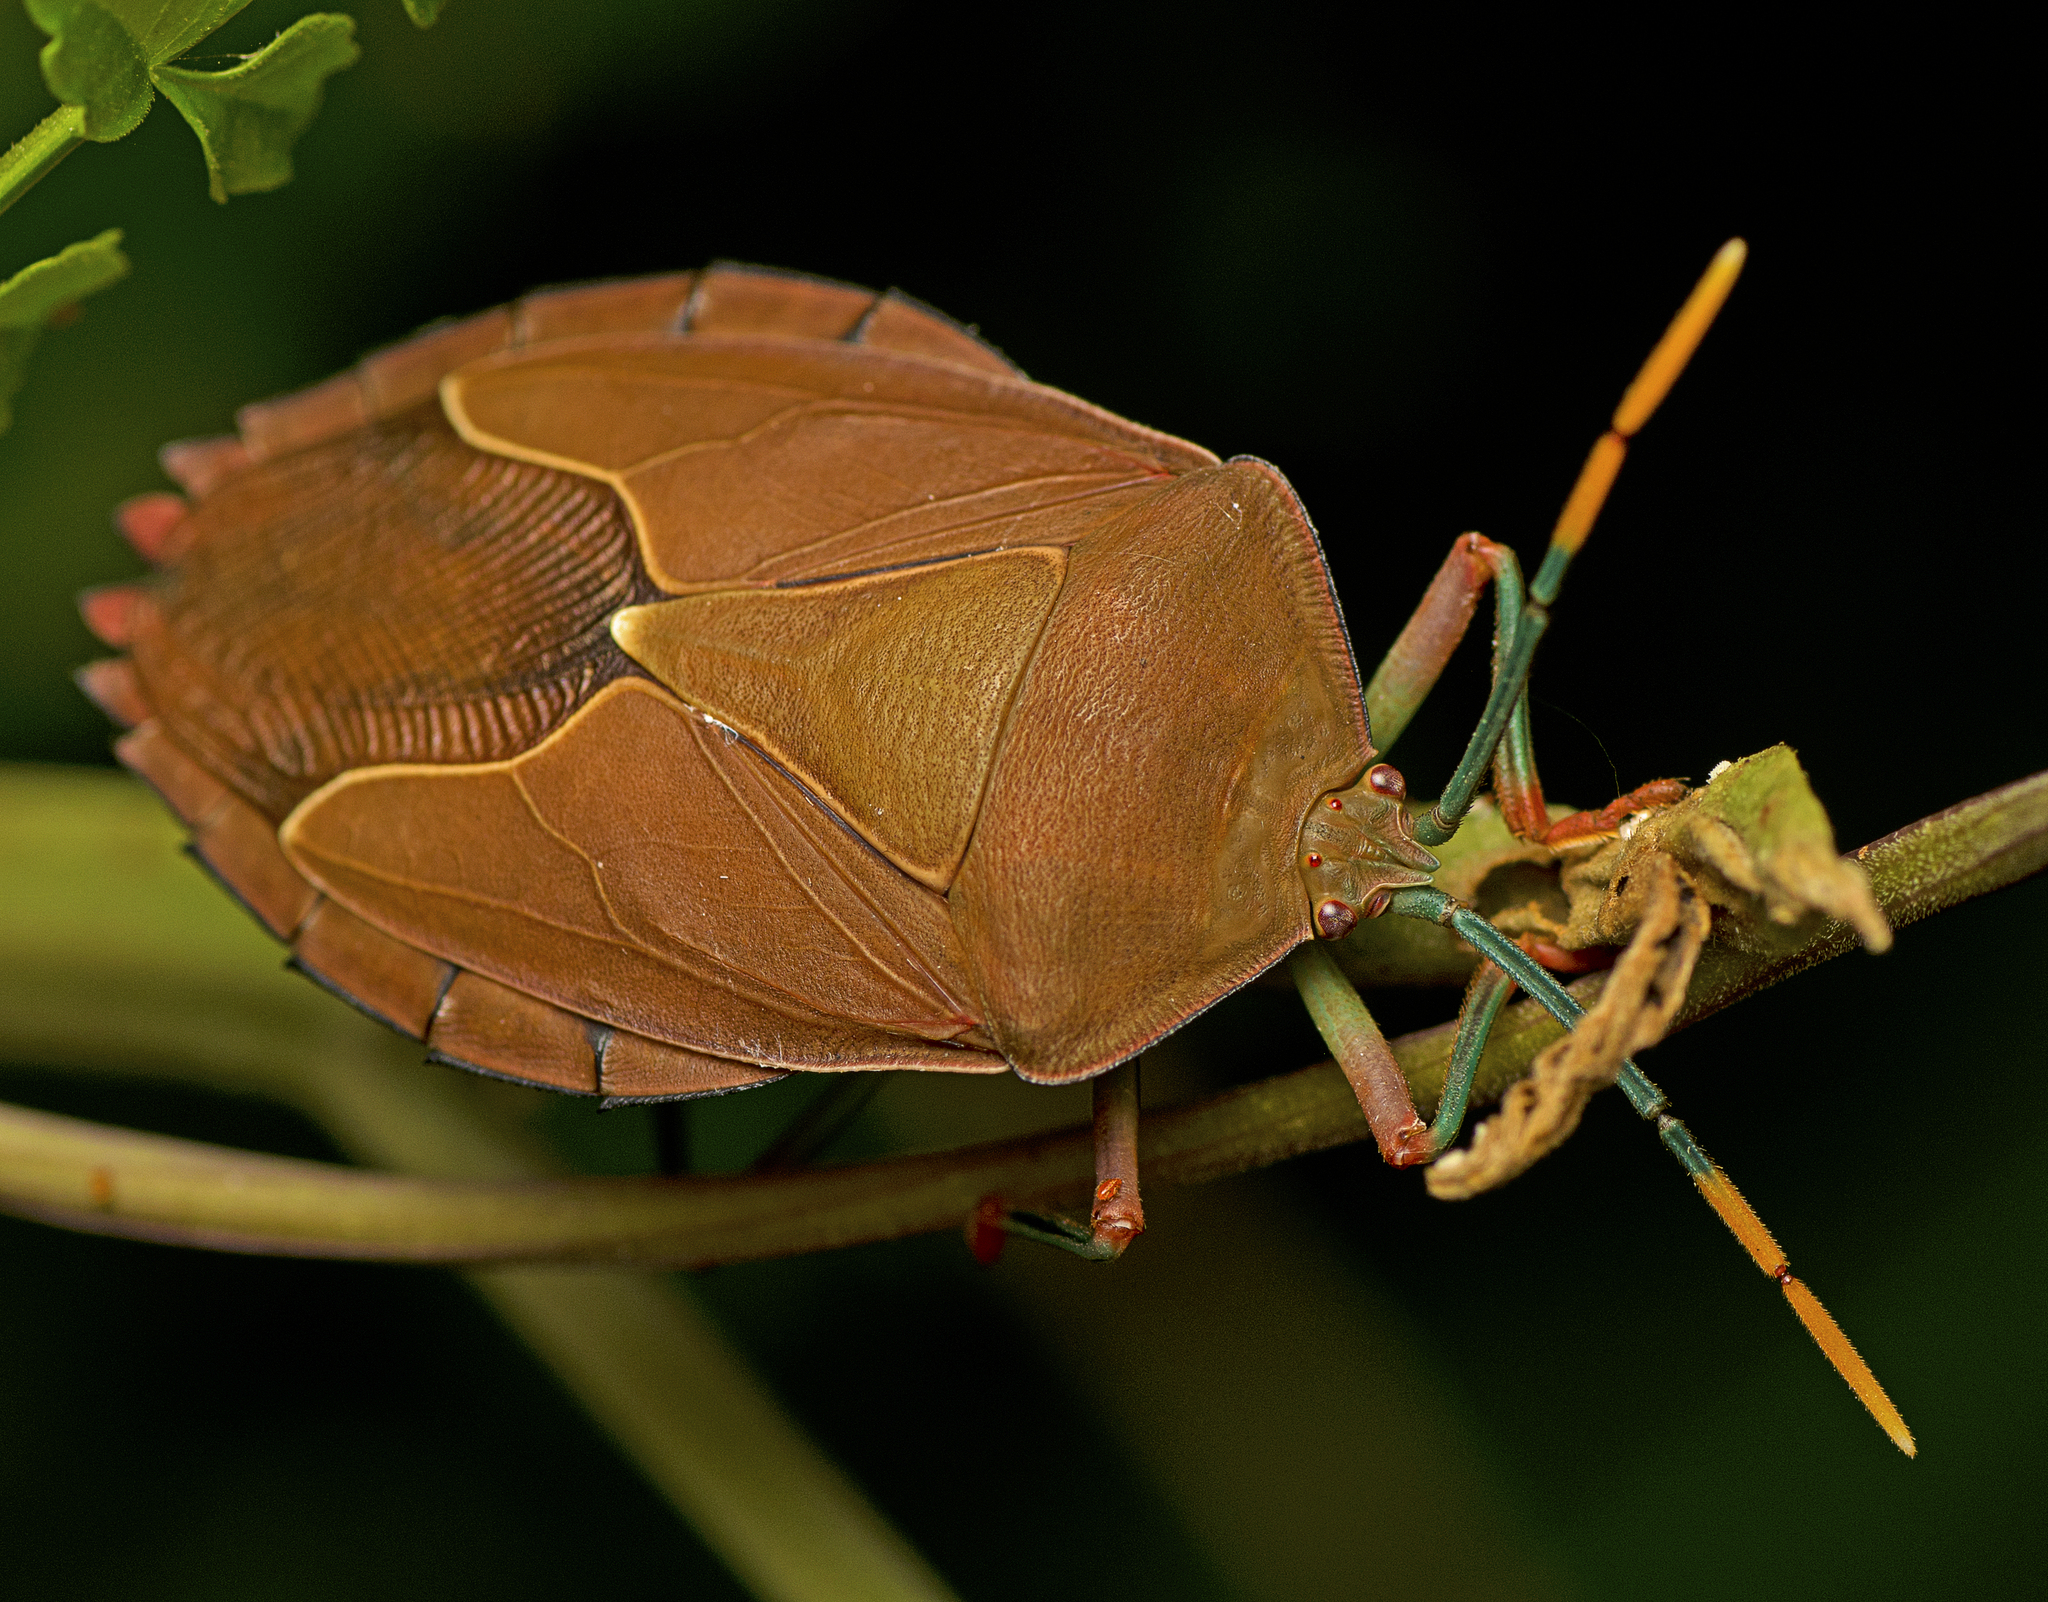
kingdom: Animalia
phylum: Arthropoda
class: Insecta
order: Hemiptera
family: Tessaratomidae
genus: Stilida
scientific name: Stilida indecora
